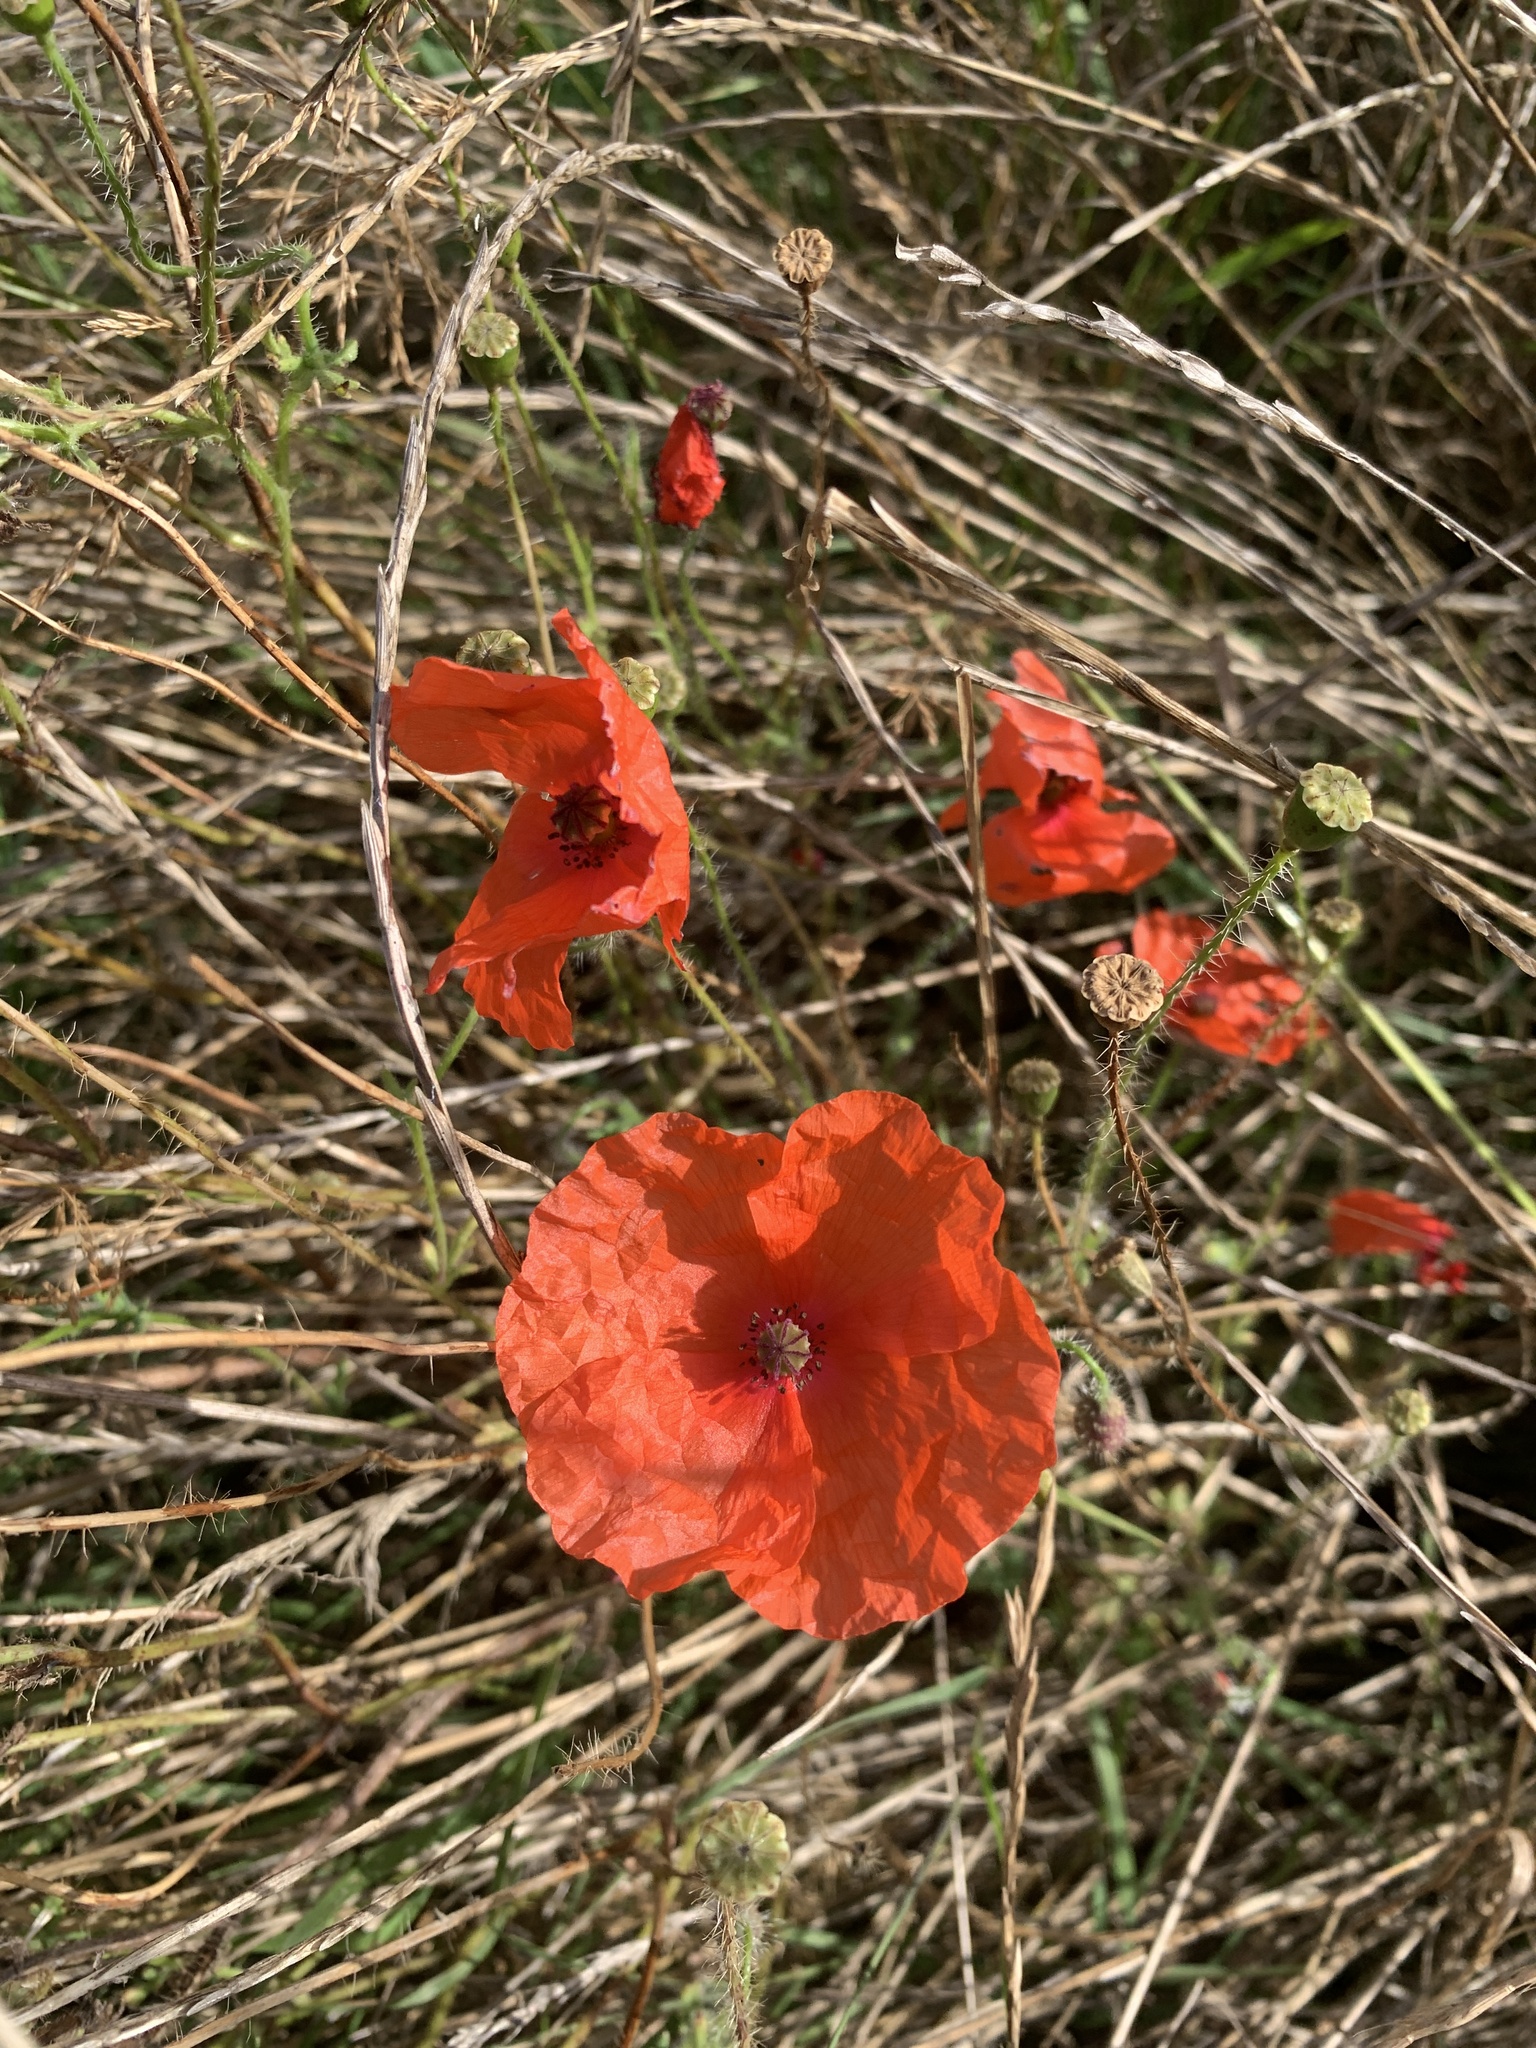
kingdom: Plantae
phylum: Tracheophyta
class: Magnoliopsida
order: Ranunculales
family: Papaveraceae
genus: Papaver
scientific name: Papaver rhoeas
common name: Corn poppy
